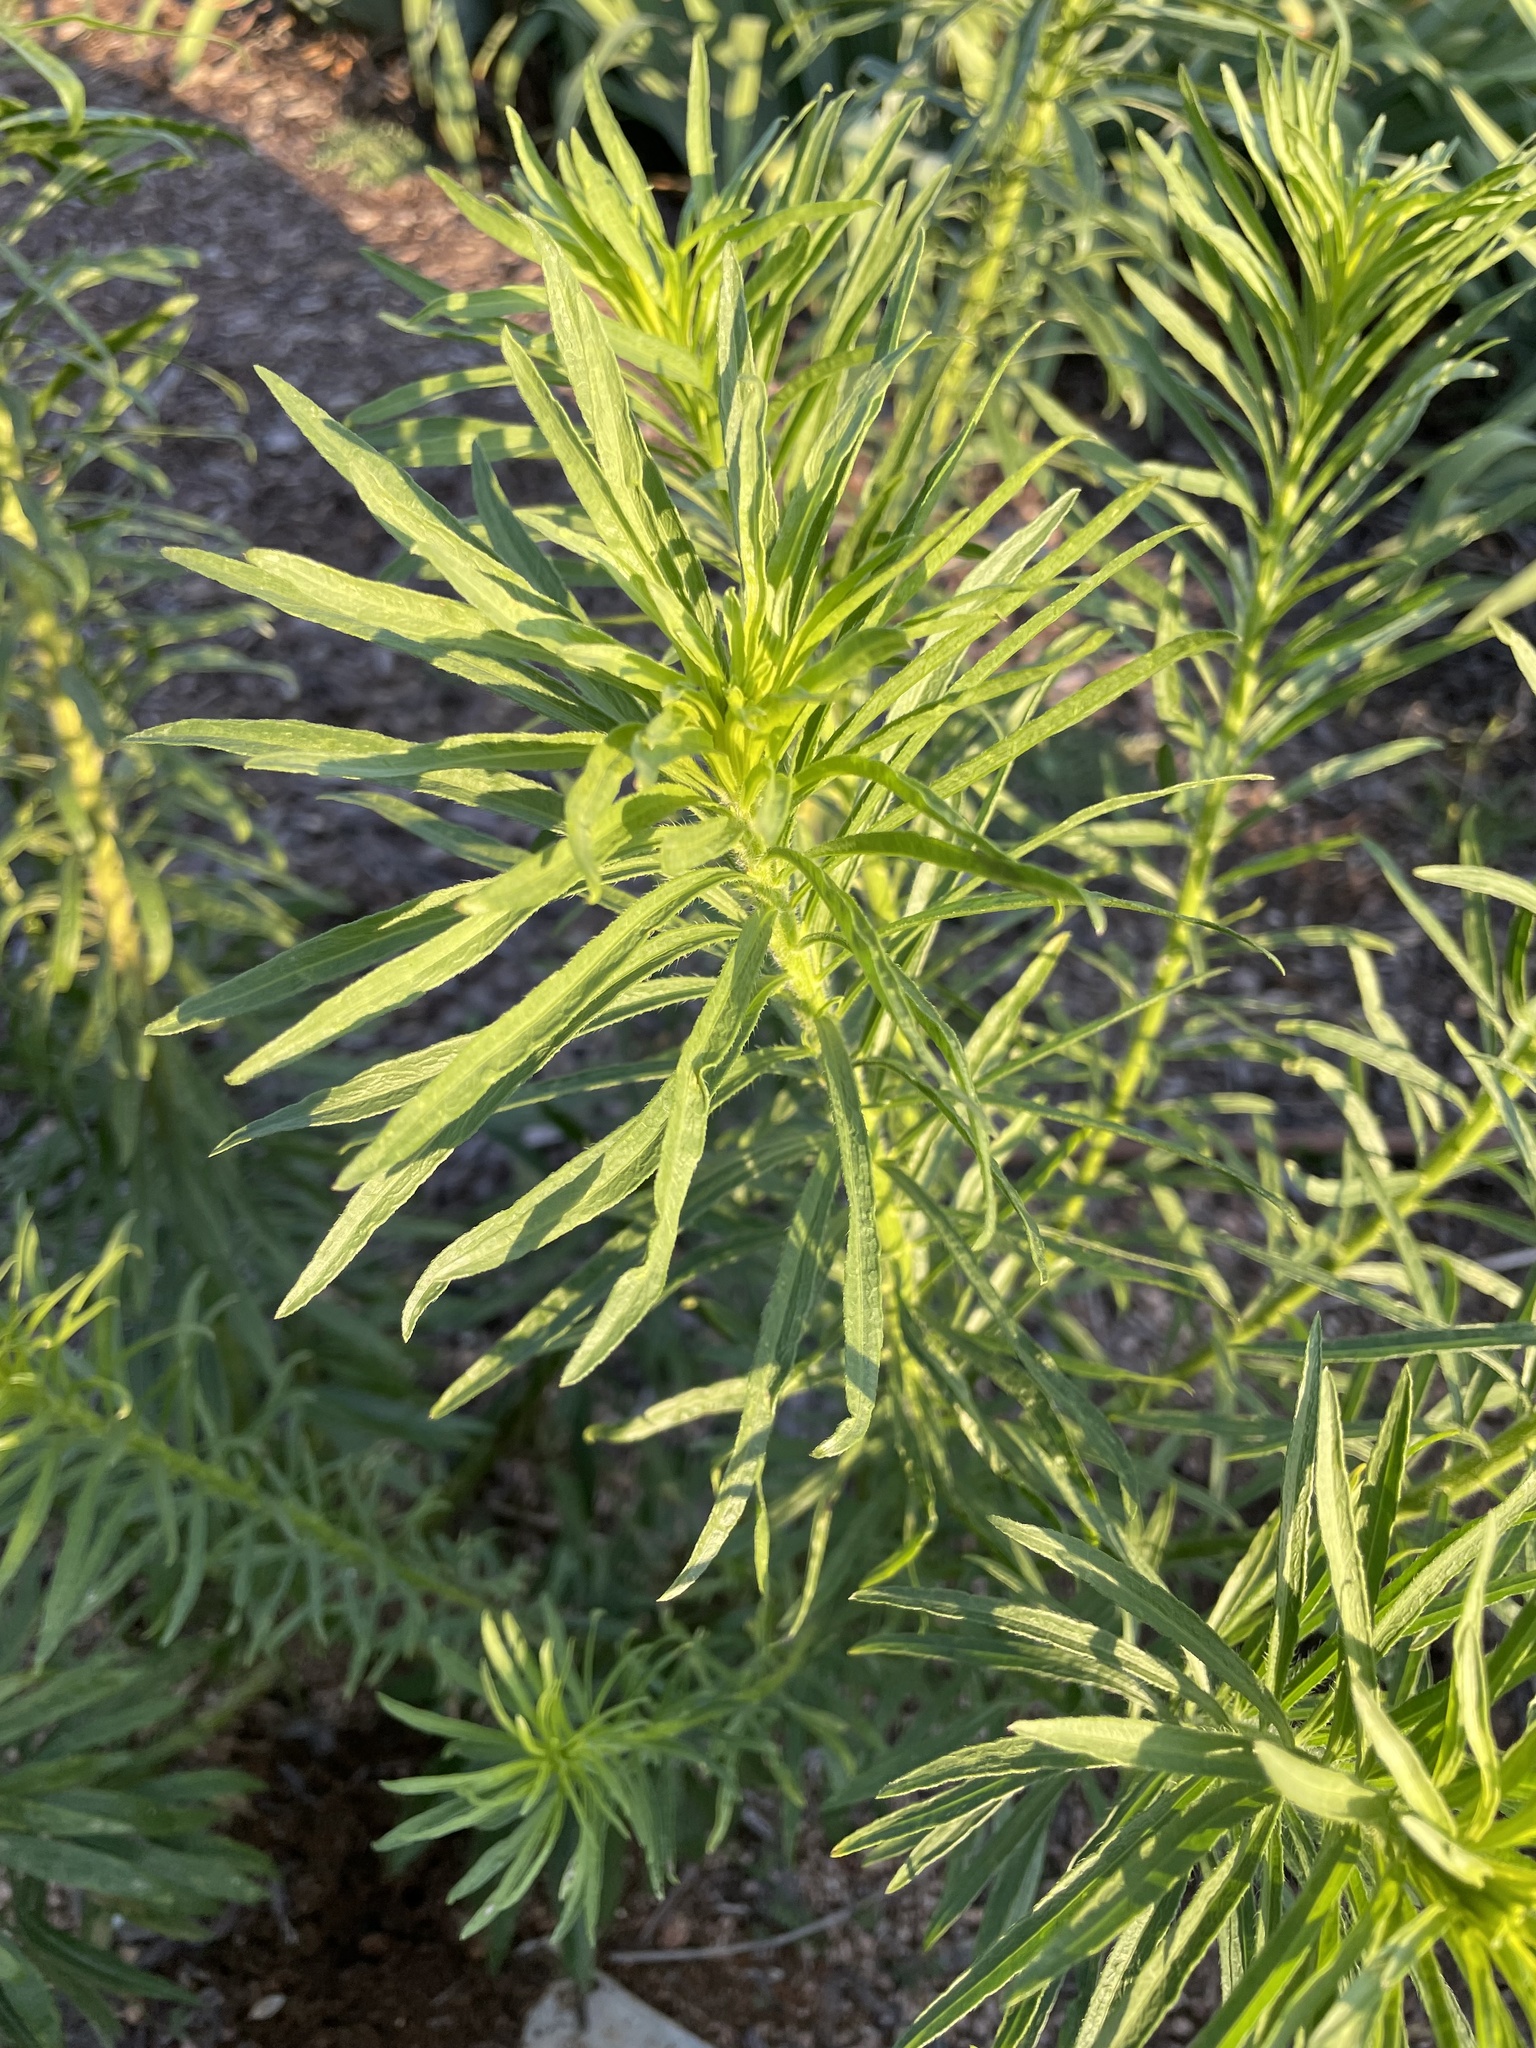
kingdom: Plantae
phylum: Tracheophyta
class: Magnoliopsida
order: Asterales
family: Asteraceae
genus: Erigeron
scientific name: Erigeron canadensis
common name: Canadian fleabane
